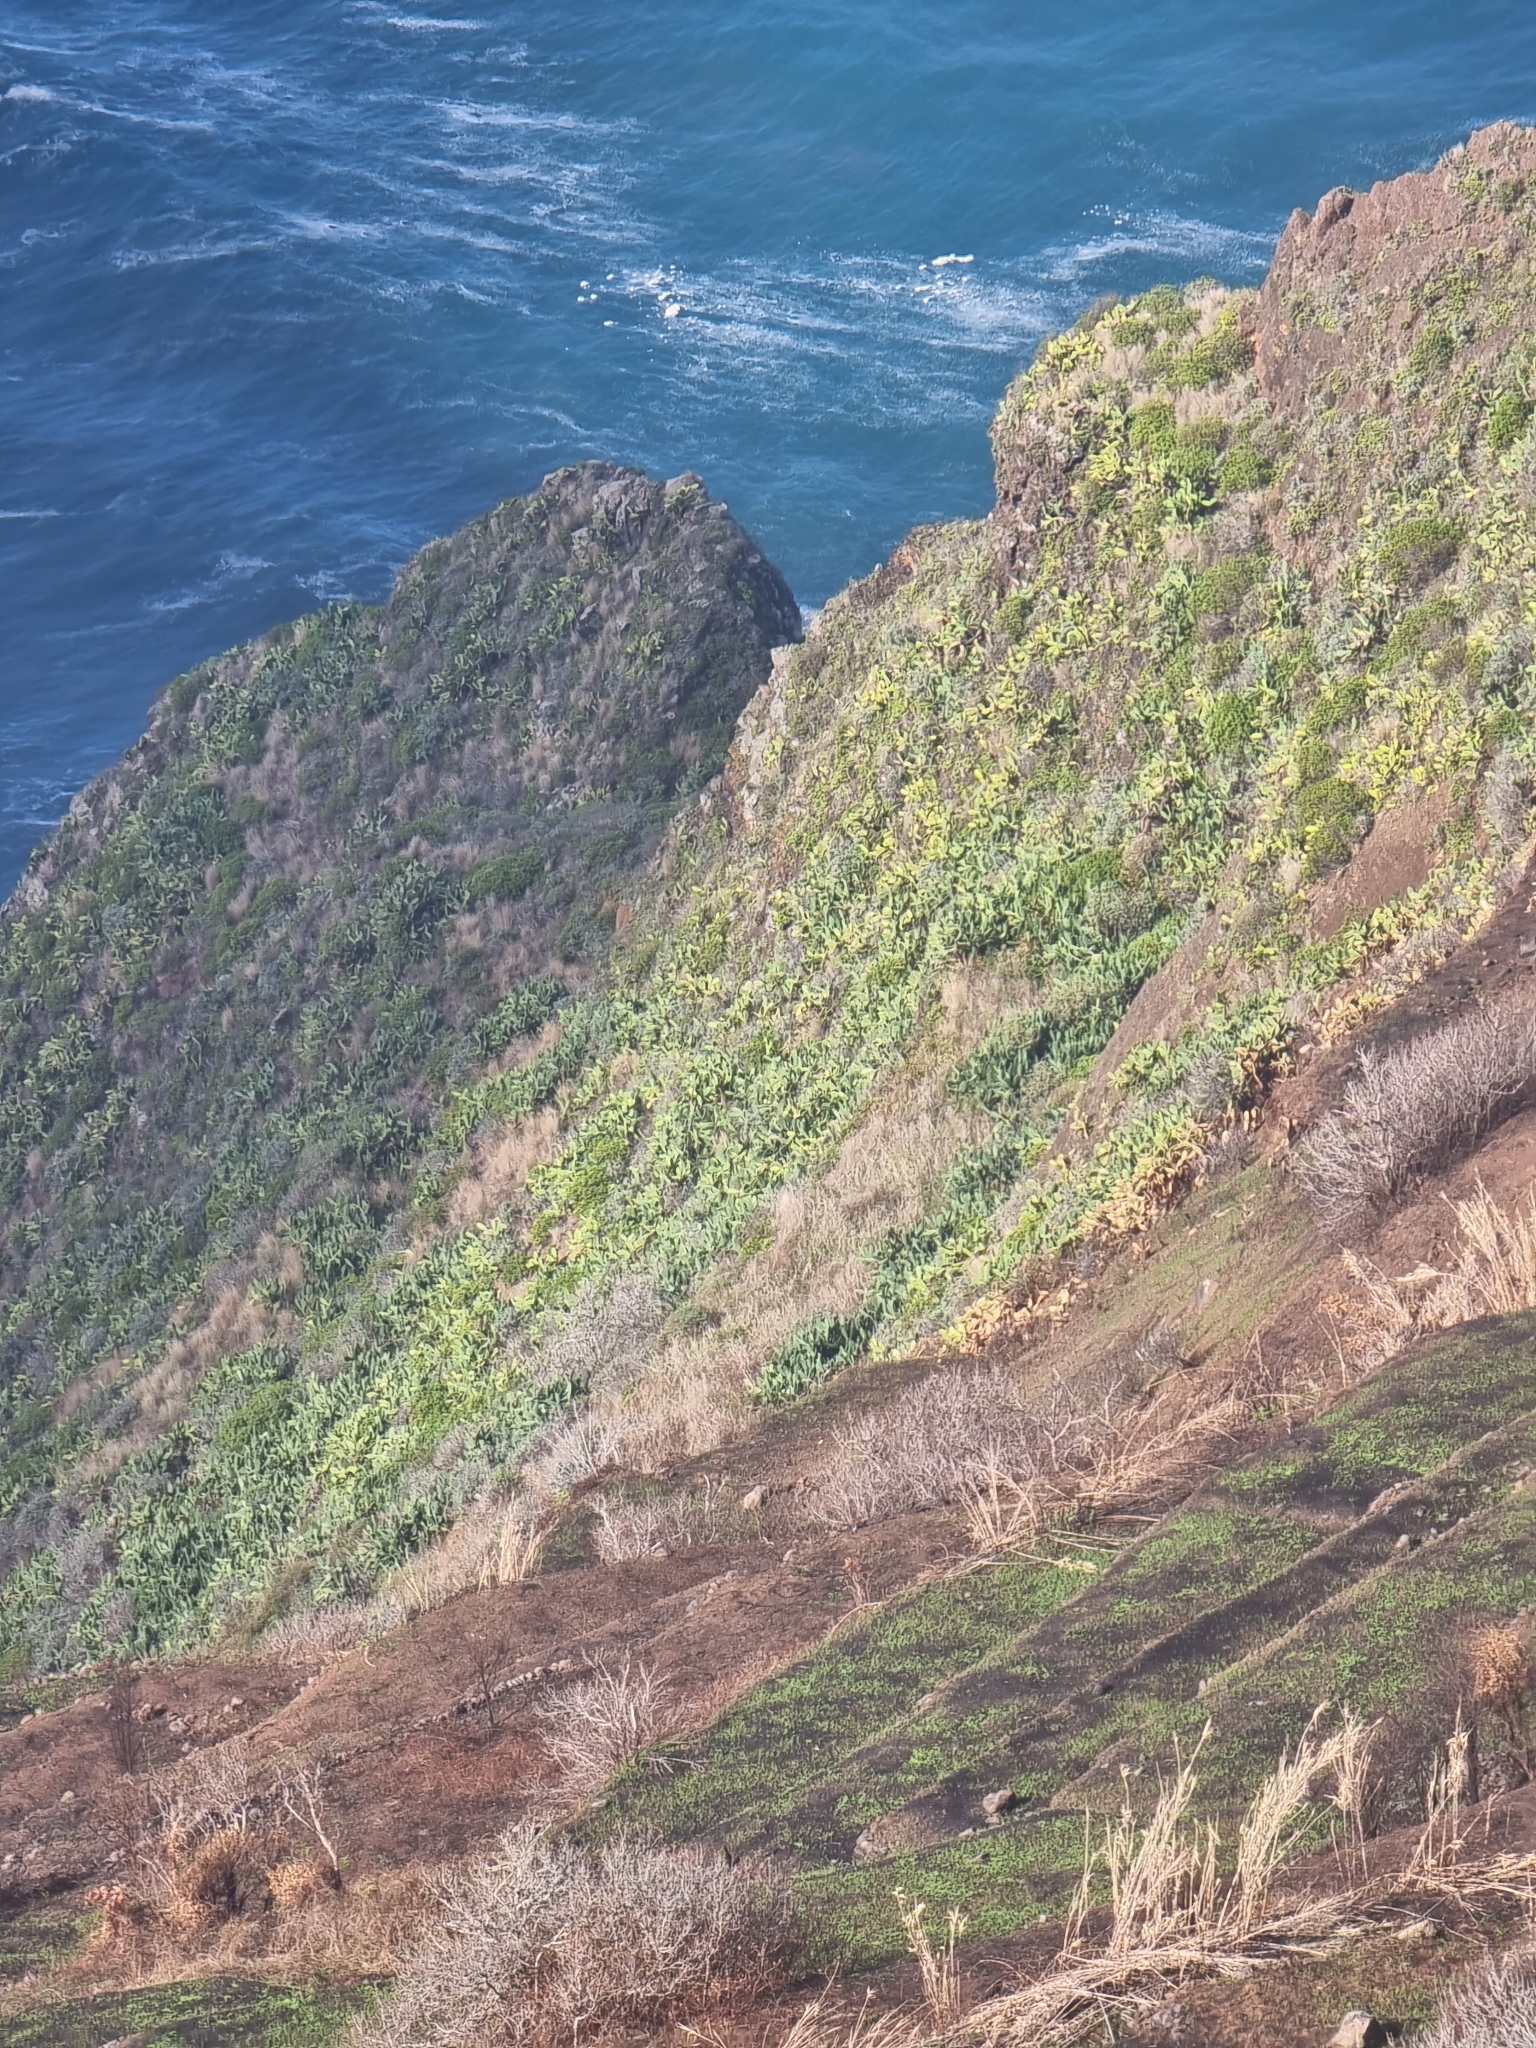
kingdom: Plantae
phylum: Tracheophyta
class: Magnoliopsida
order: Caryophyllales
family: Cactaceae
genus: Opuntia
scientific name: Opuntia ficus-indica
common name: Barbary fig
